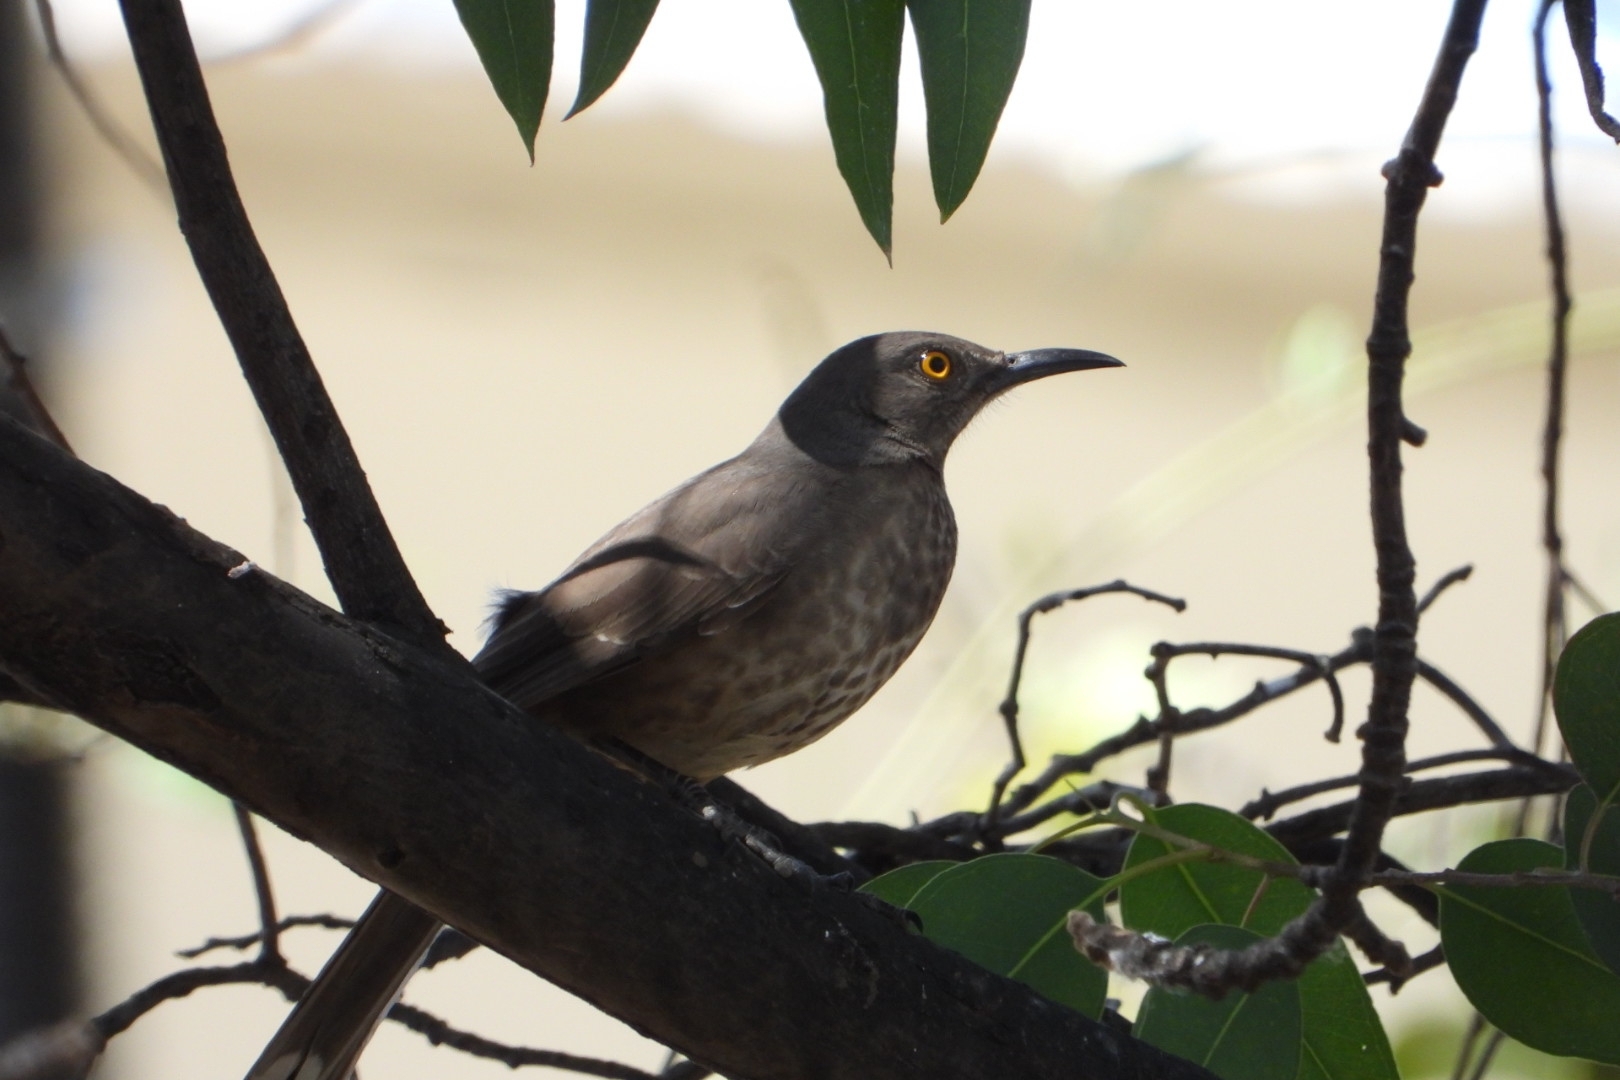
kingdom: Animalia
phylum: Chordata
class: Aves
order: Passeriformes
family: Mimidae
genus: Toxostoma
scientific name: Toxostoma curvirostre
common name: Curve-billed thrasher
